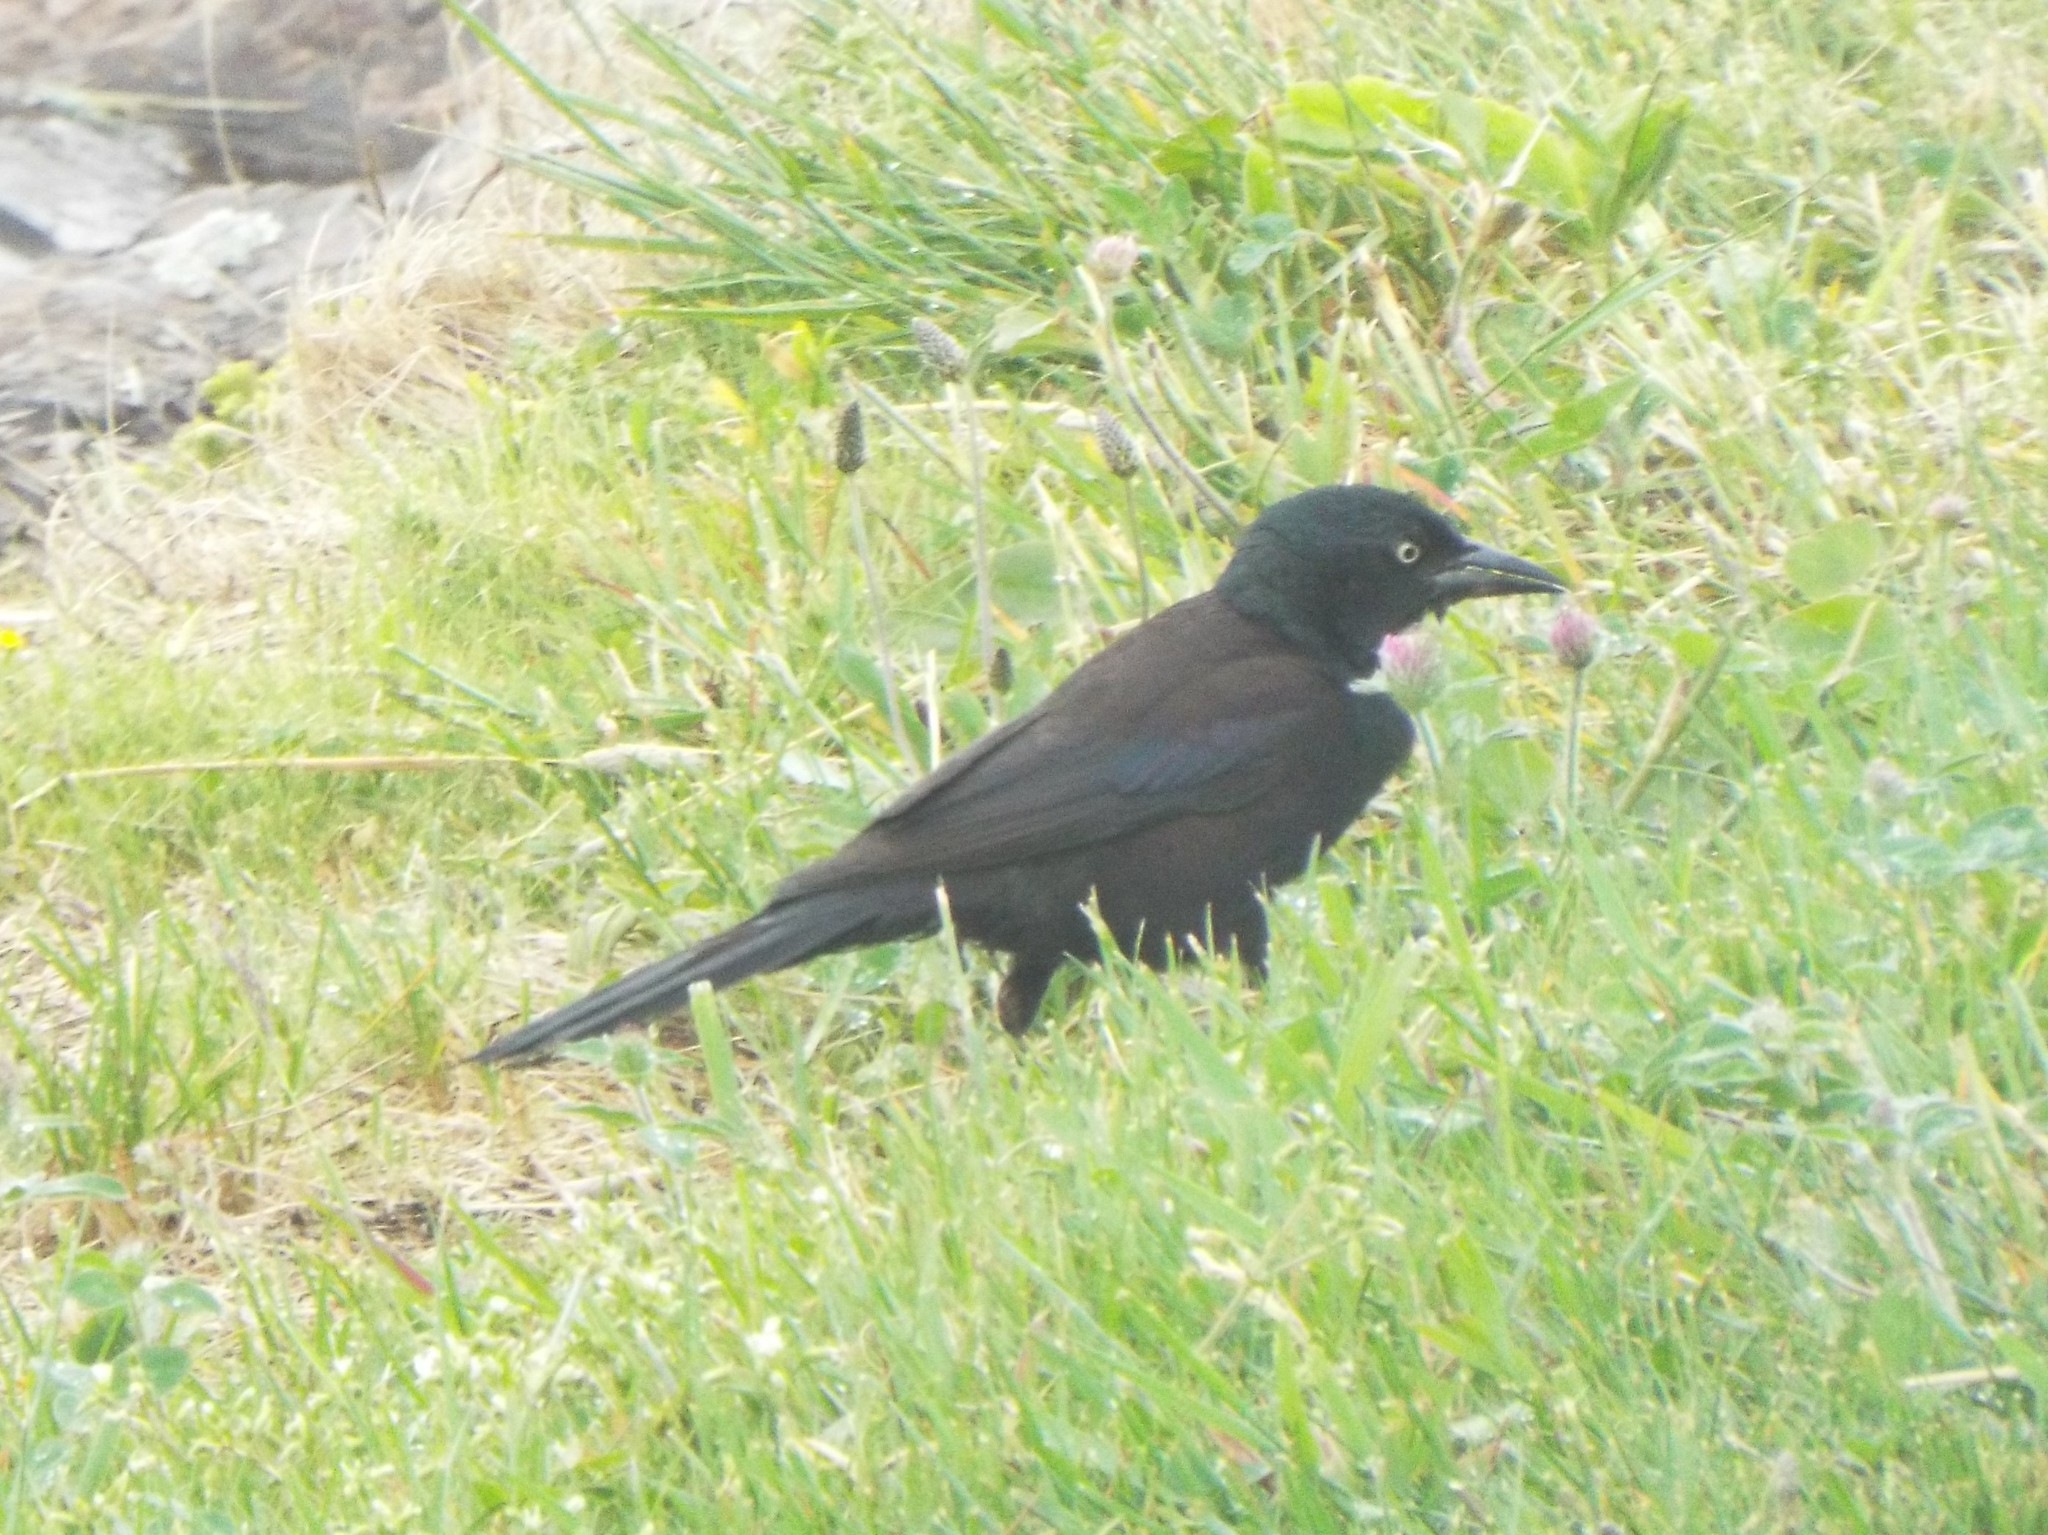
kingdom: Animalia
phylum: Chordata
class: Aves
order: Passeriformes
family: Icteridae
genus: Quiscalus
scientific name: Quiscalus quiscula
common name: Common grackle
